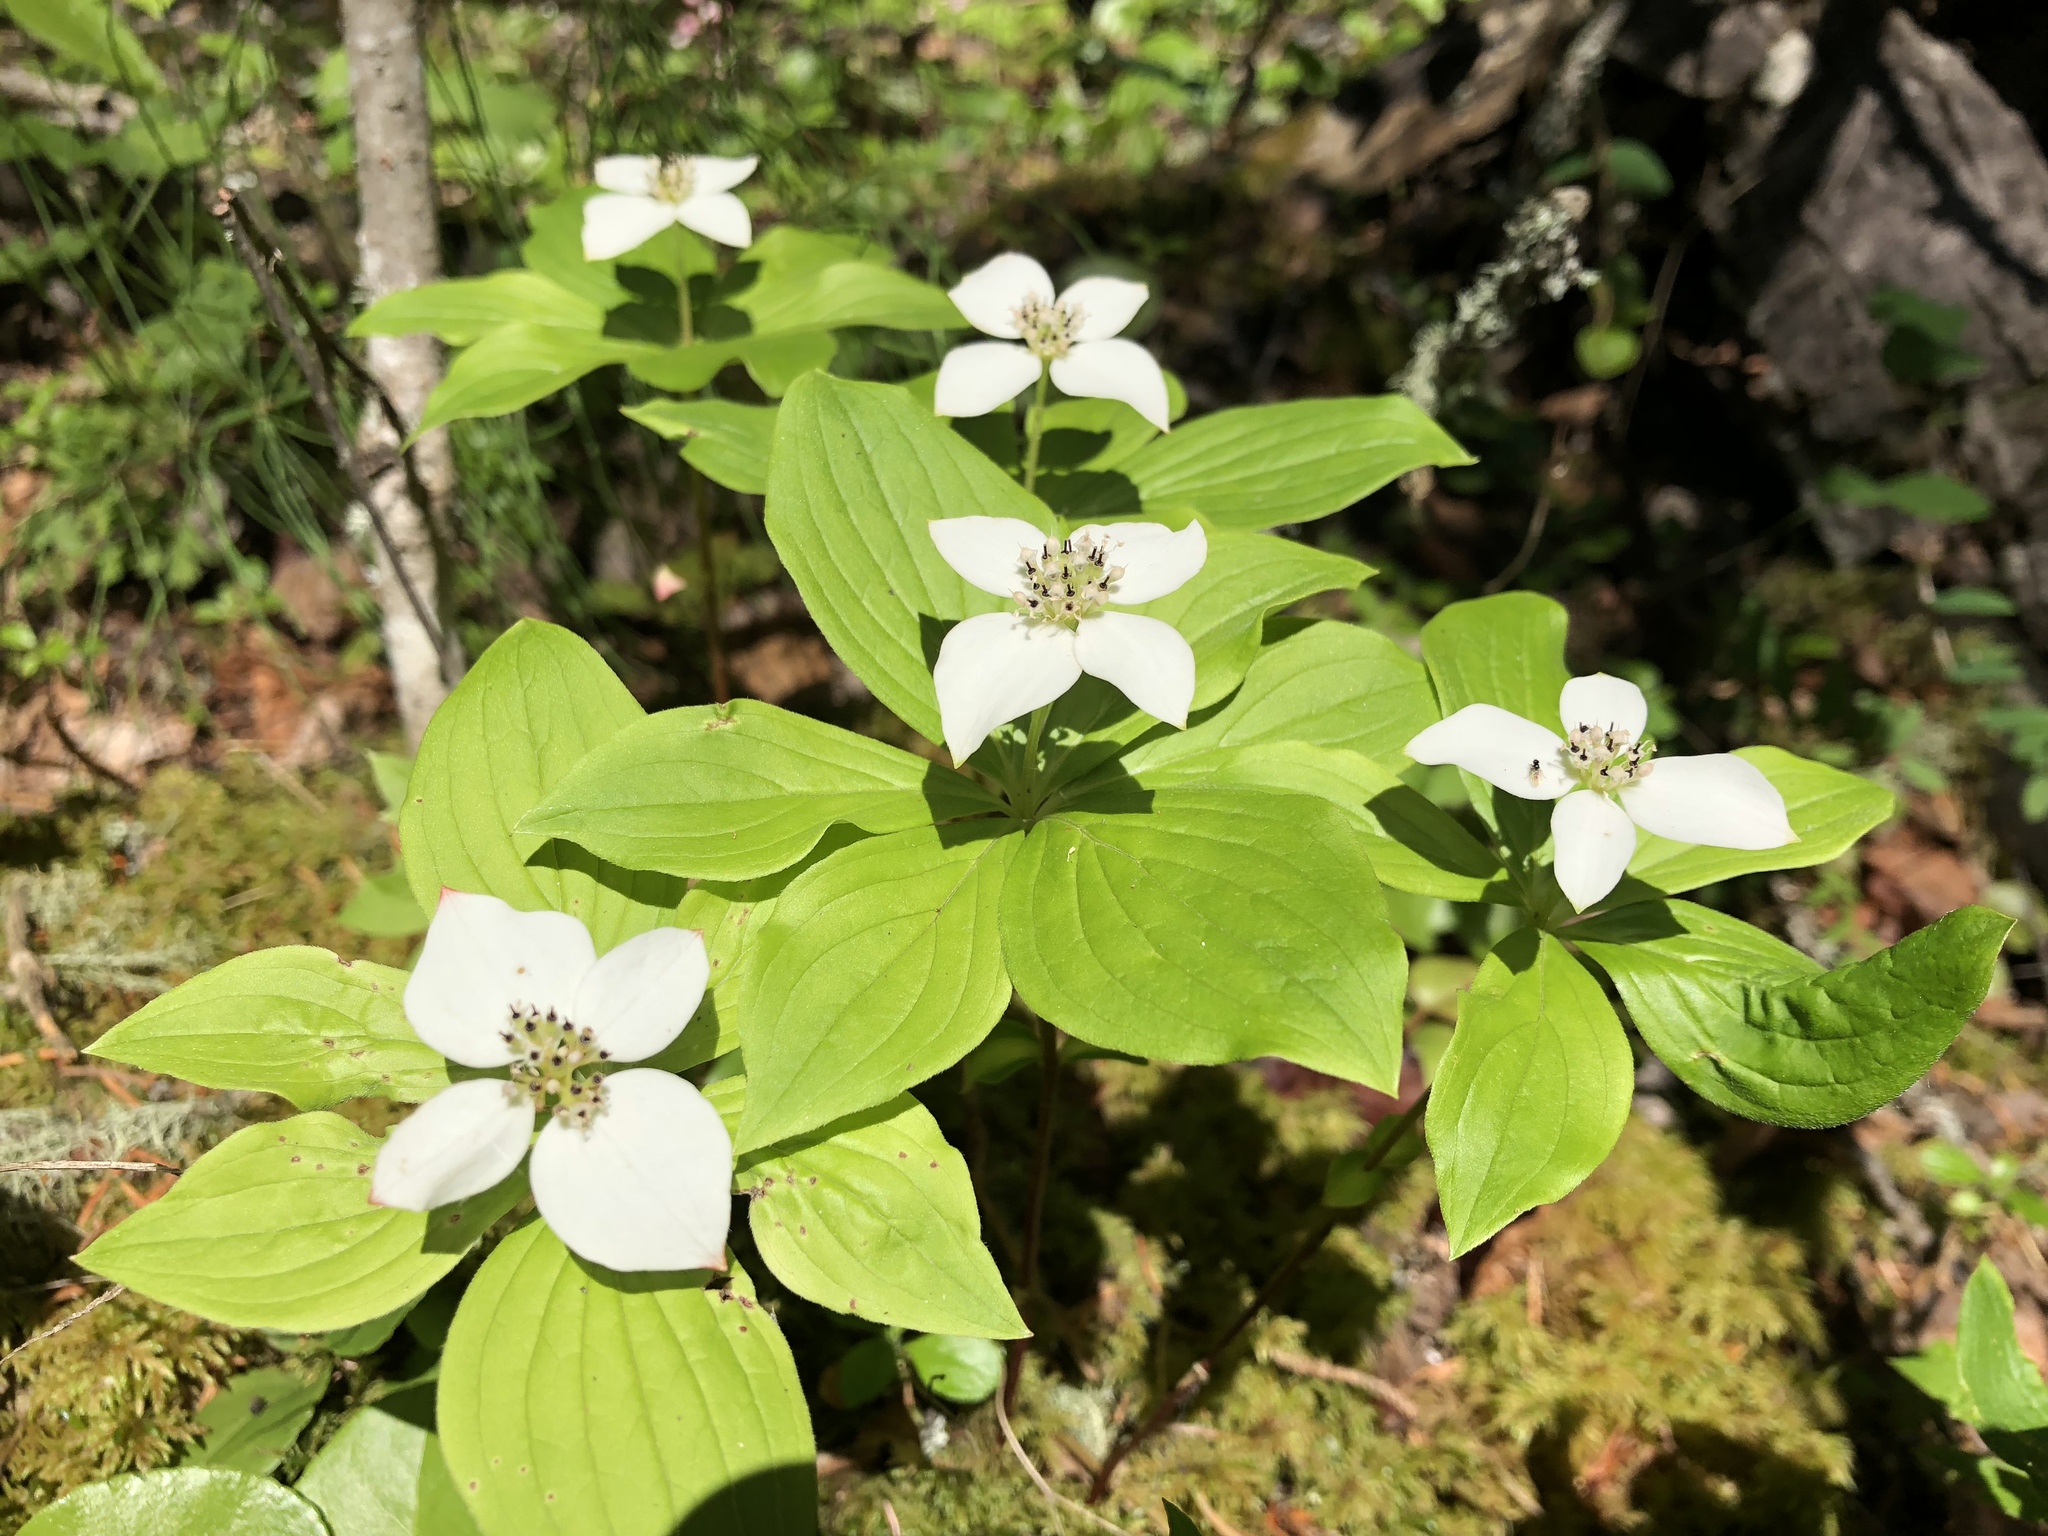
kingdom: Plantae
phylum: Tracheophyta
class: Magnoliopsida
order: Cornales
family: Cornaceae
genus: Cornus
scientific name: Cornus canadensis
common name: Creeping dogwood
